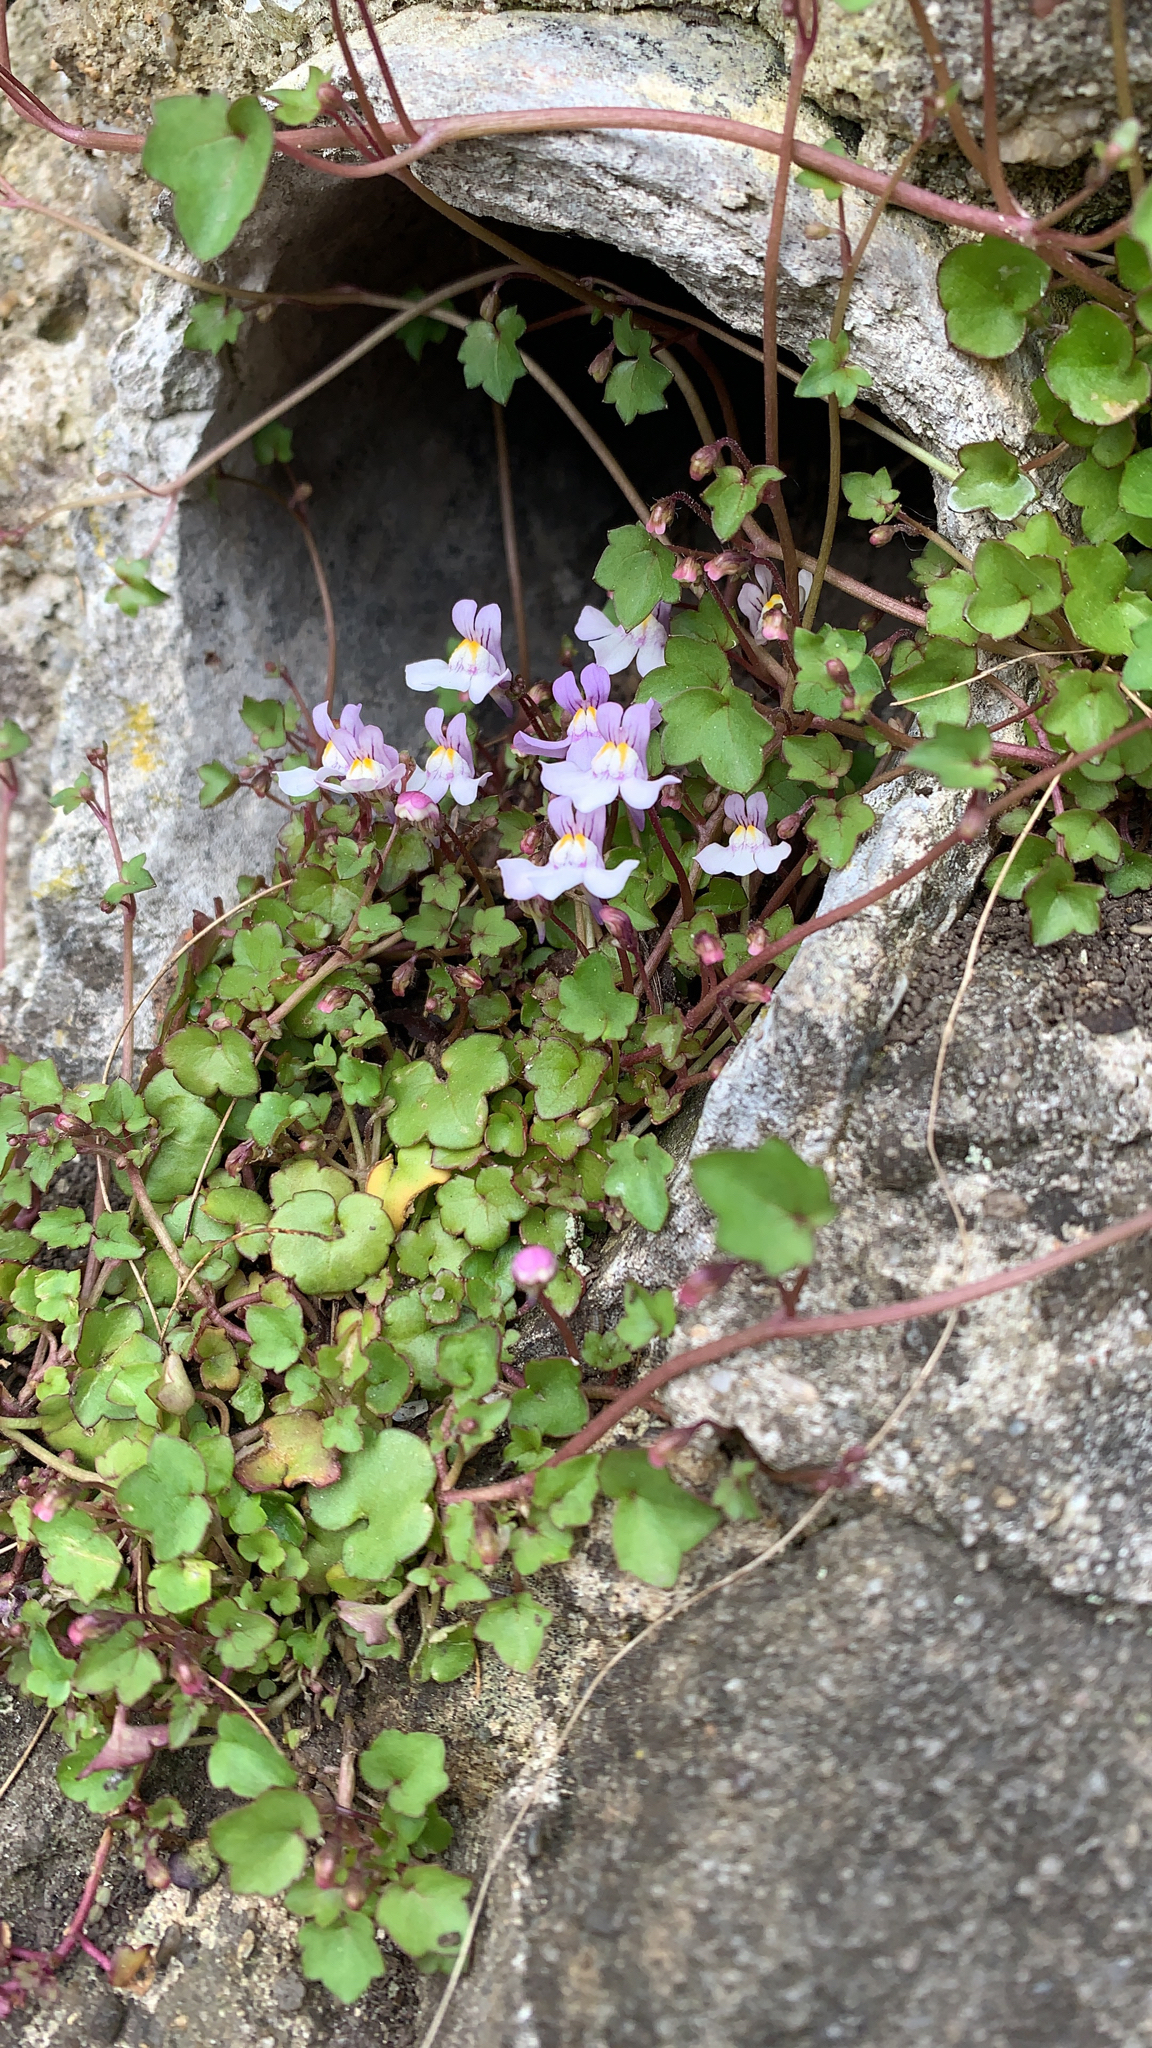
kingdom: Plantae
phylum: Tracheophyta
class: Magnoliopsida
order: Lamiales
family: Plantaginaceae
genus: Cymbalaria
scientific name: Cymbalaria muralis
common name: Ivy-leaved toadflax
